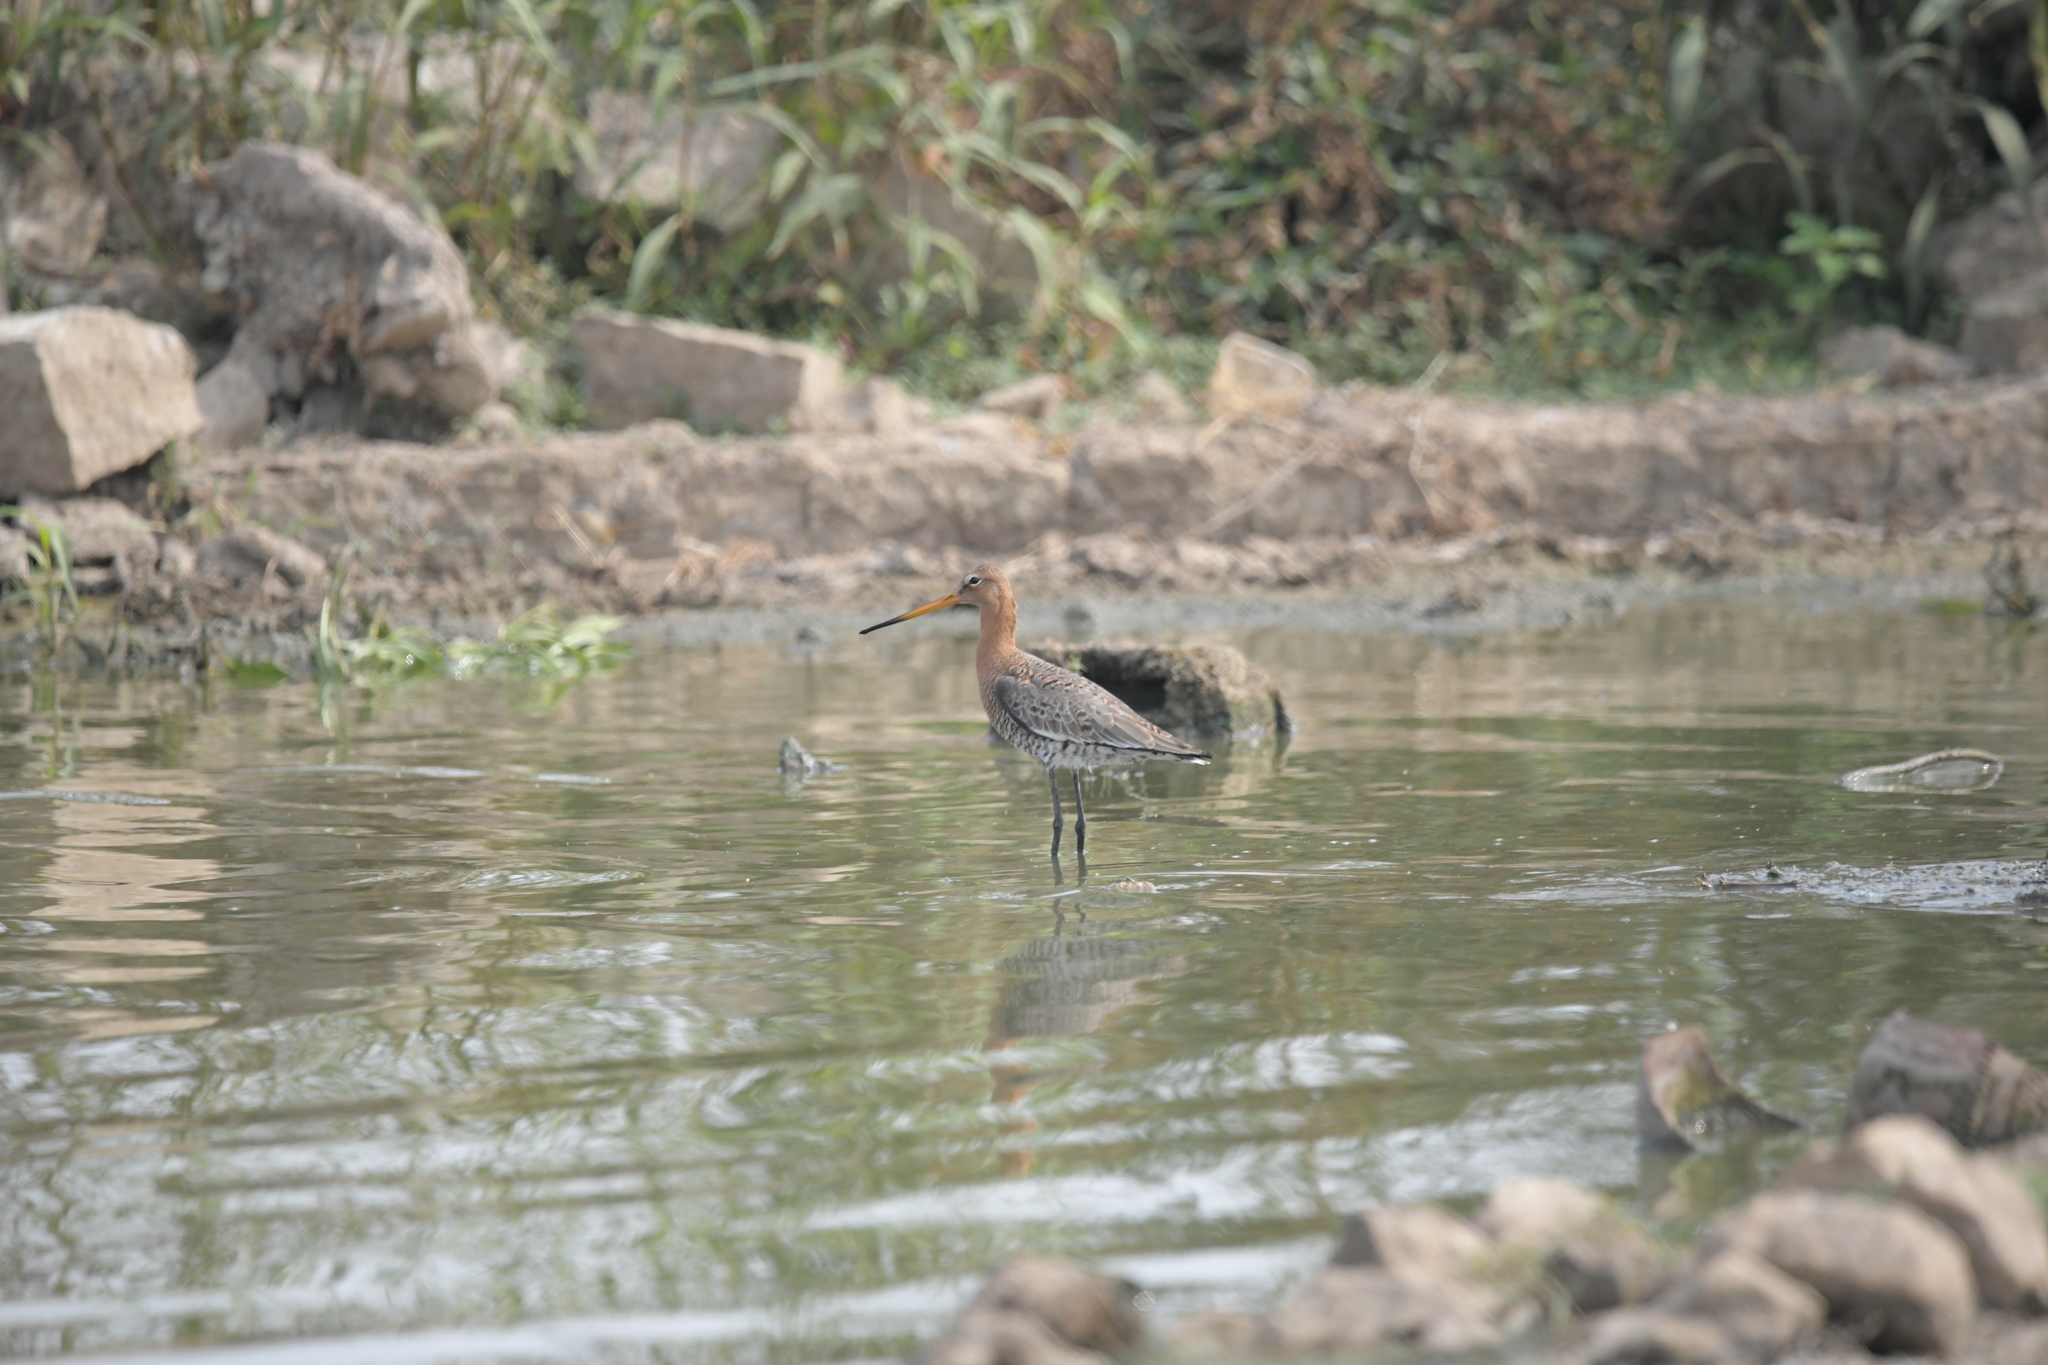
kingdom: Animalia
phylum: Chordata
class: Aves
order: Charadriiformes
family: Scolopacidae
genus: Limosa
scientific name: Limosa limosa
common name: Black-tailed godwit
